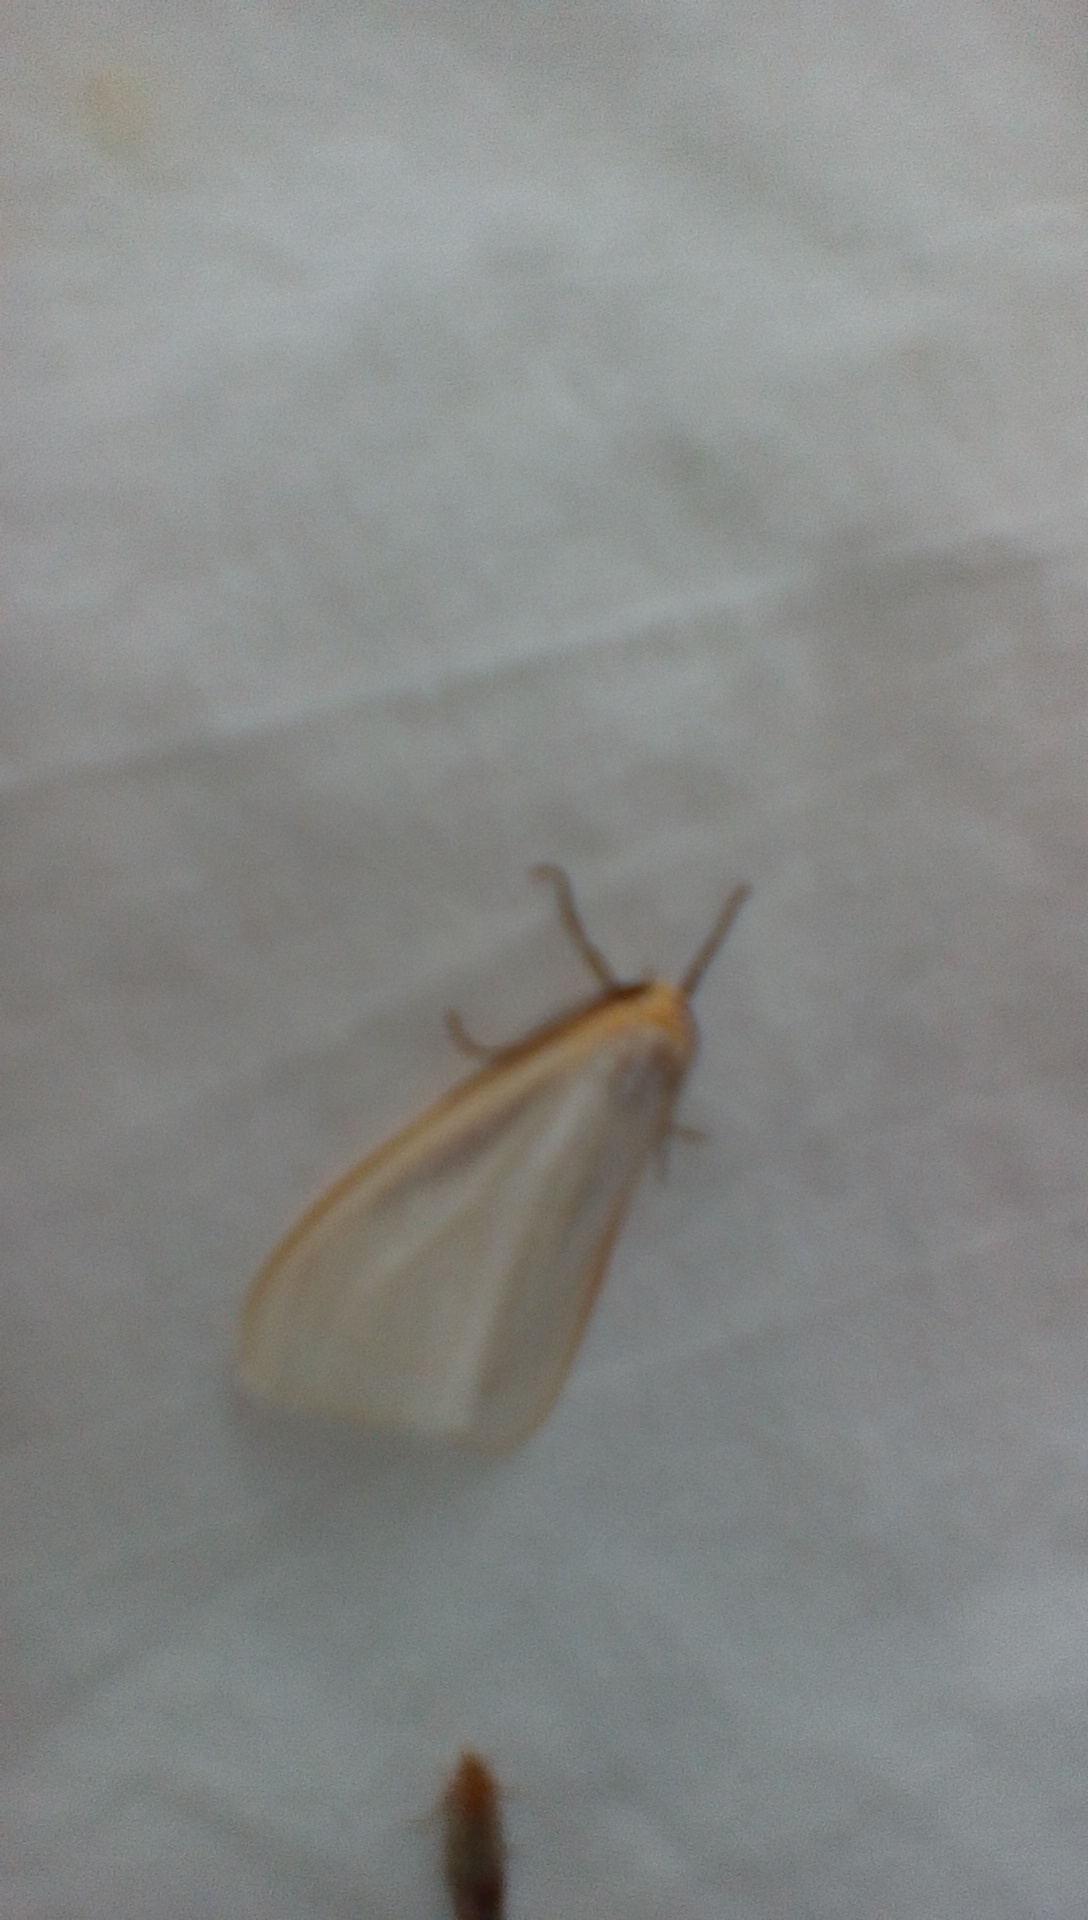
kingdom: Animalia
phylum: Arthropoda
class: Insecta
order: Lepidoptera
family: Erebidae
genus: Cycnia
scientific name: Cycnia tenera
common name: Delicate cycnia moth
